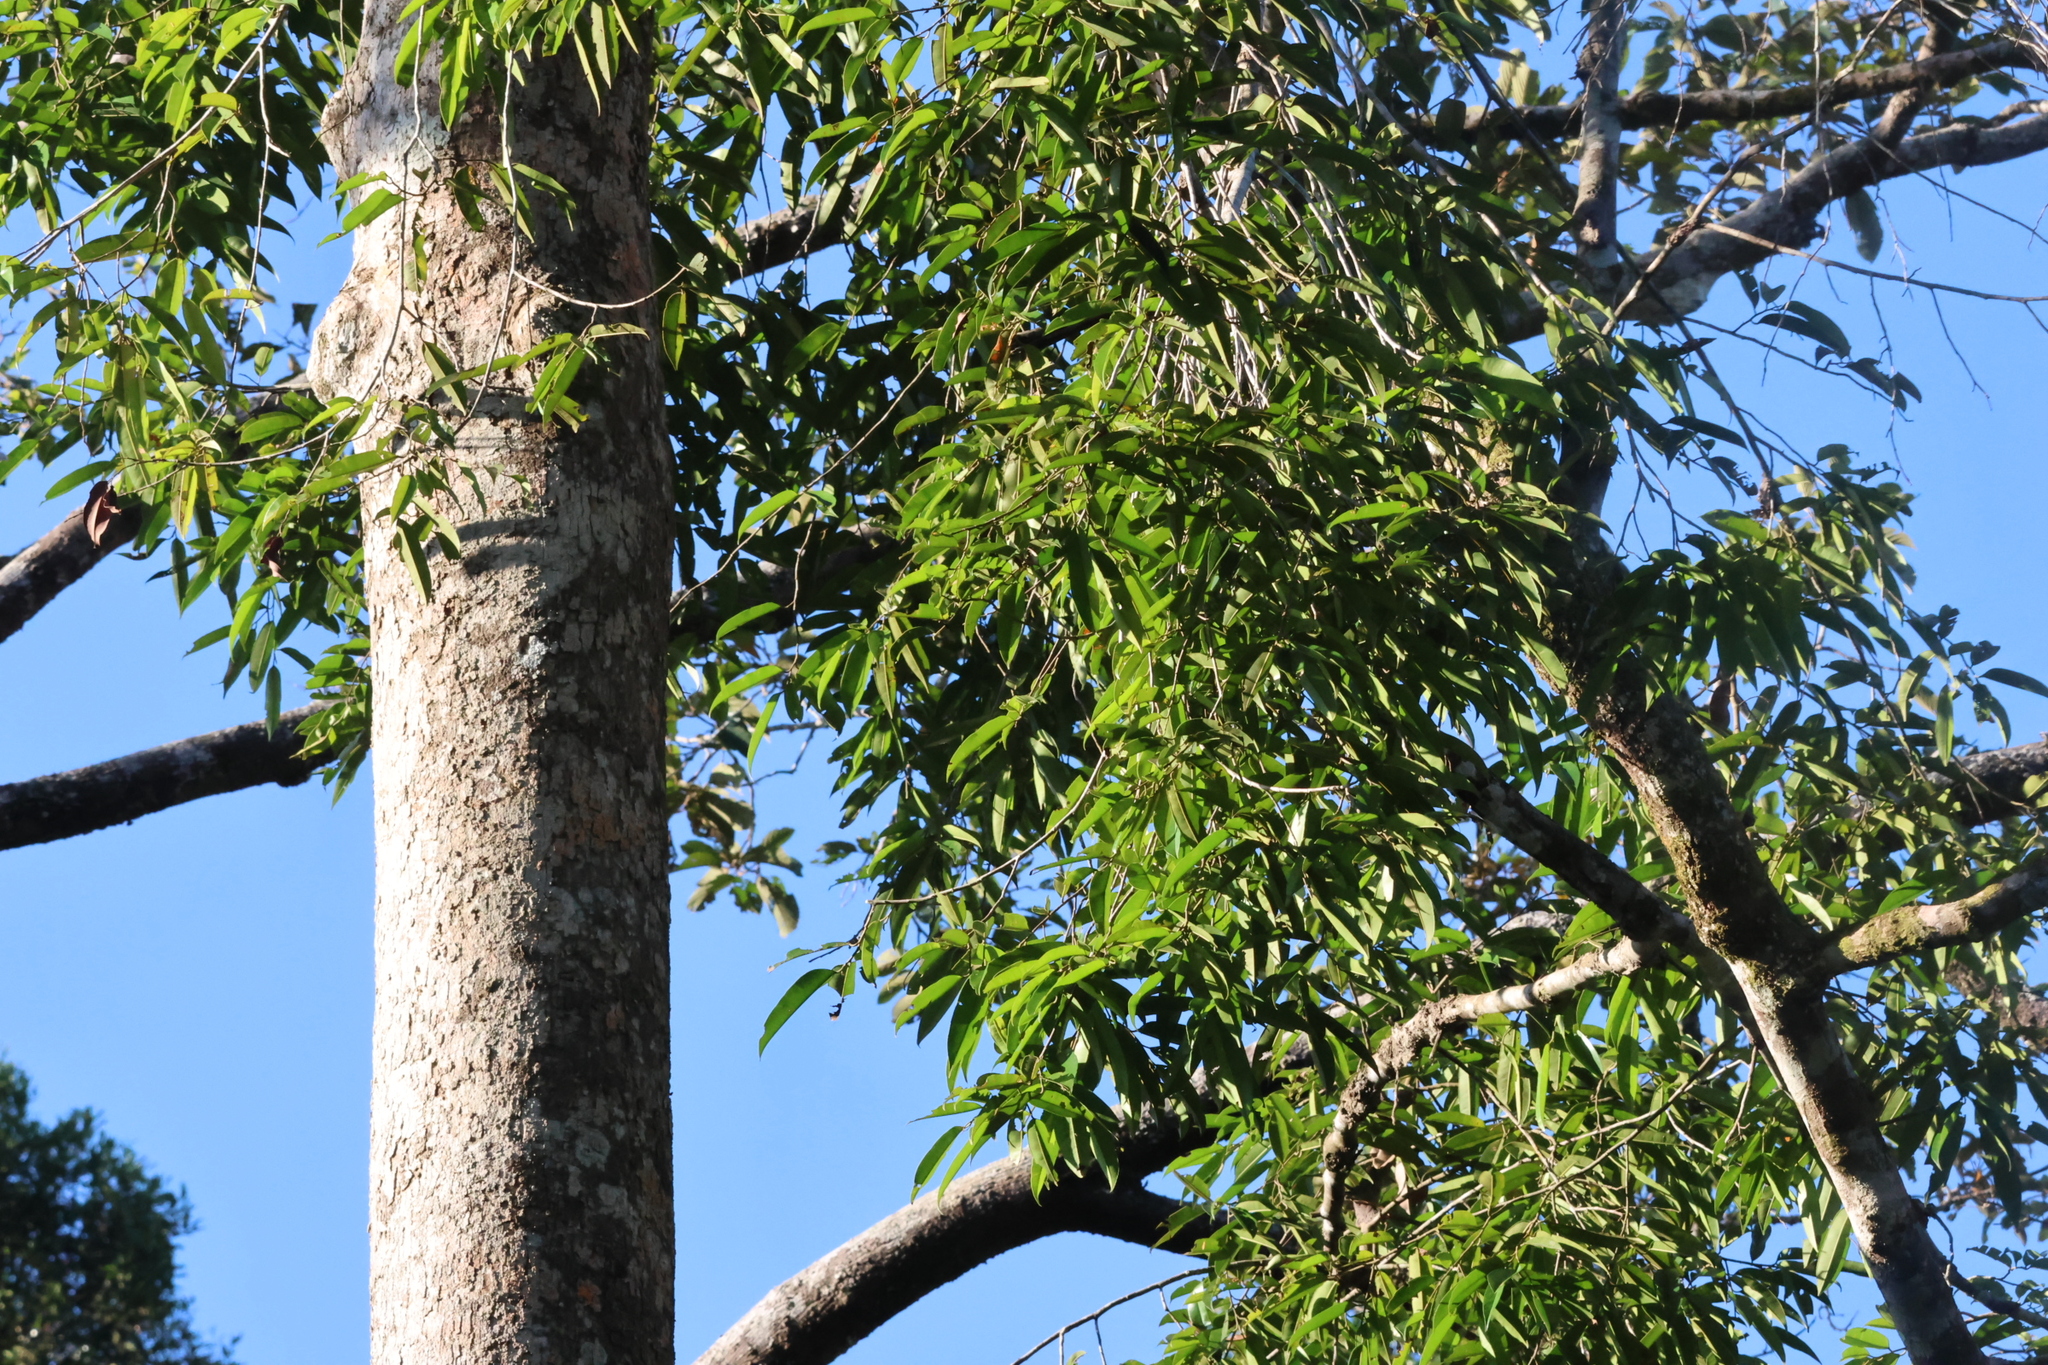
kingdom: Plantae
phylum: Tracheophyta
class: Magnoliopsida
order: Malvales
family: Dipterocarpaceae
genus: Dryobalanops
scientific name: Dryobalanops lanceolata
